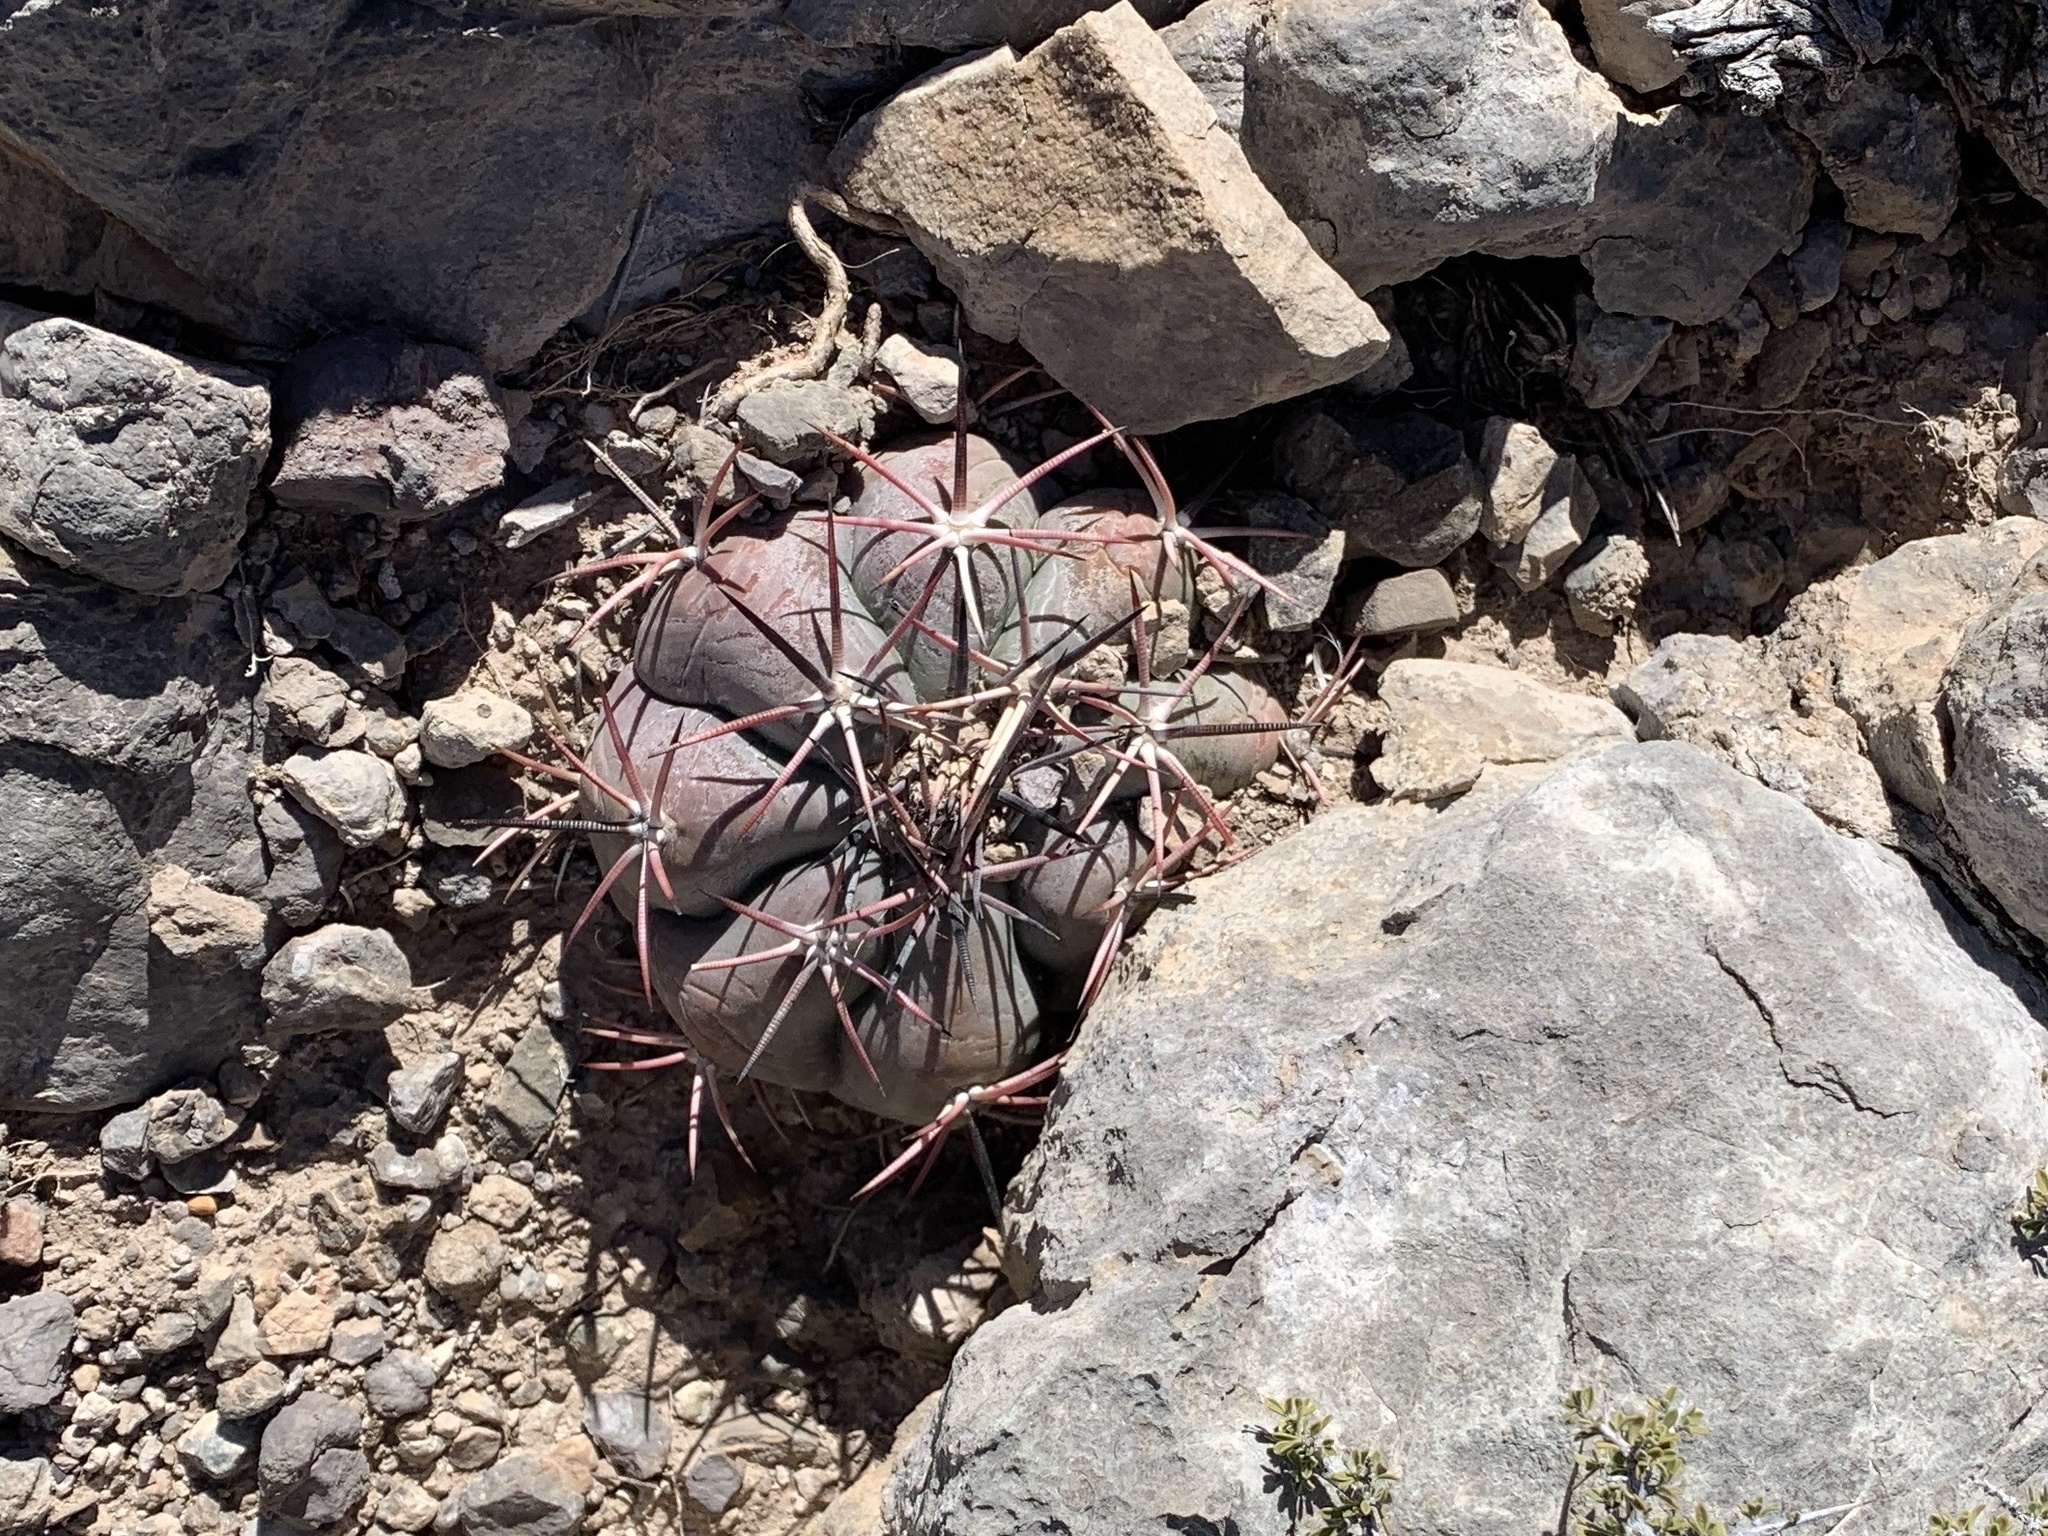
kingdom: Plantae
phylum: Tracheophyta
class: Magnoliopsida
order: Caryophyllales
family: Cactaceae
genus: Echinocactus
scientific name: Echinocactus horizonthalonius
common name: Devilshead
